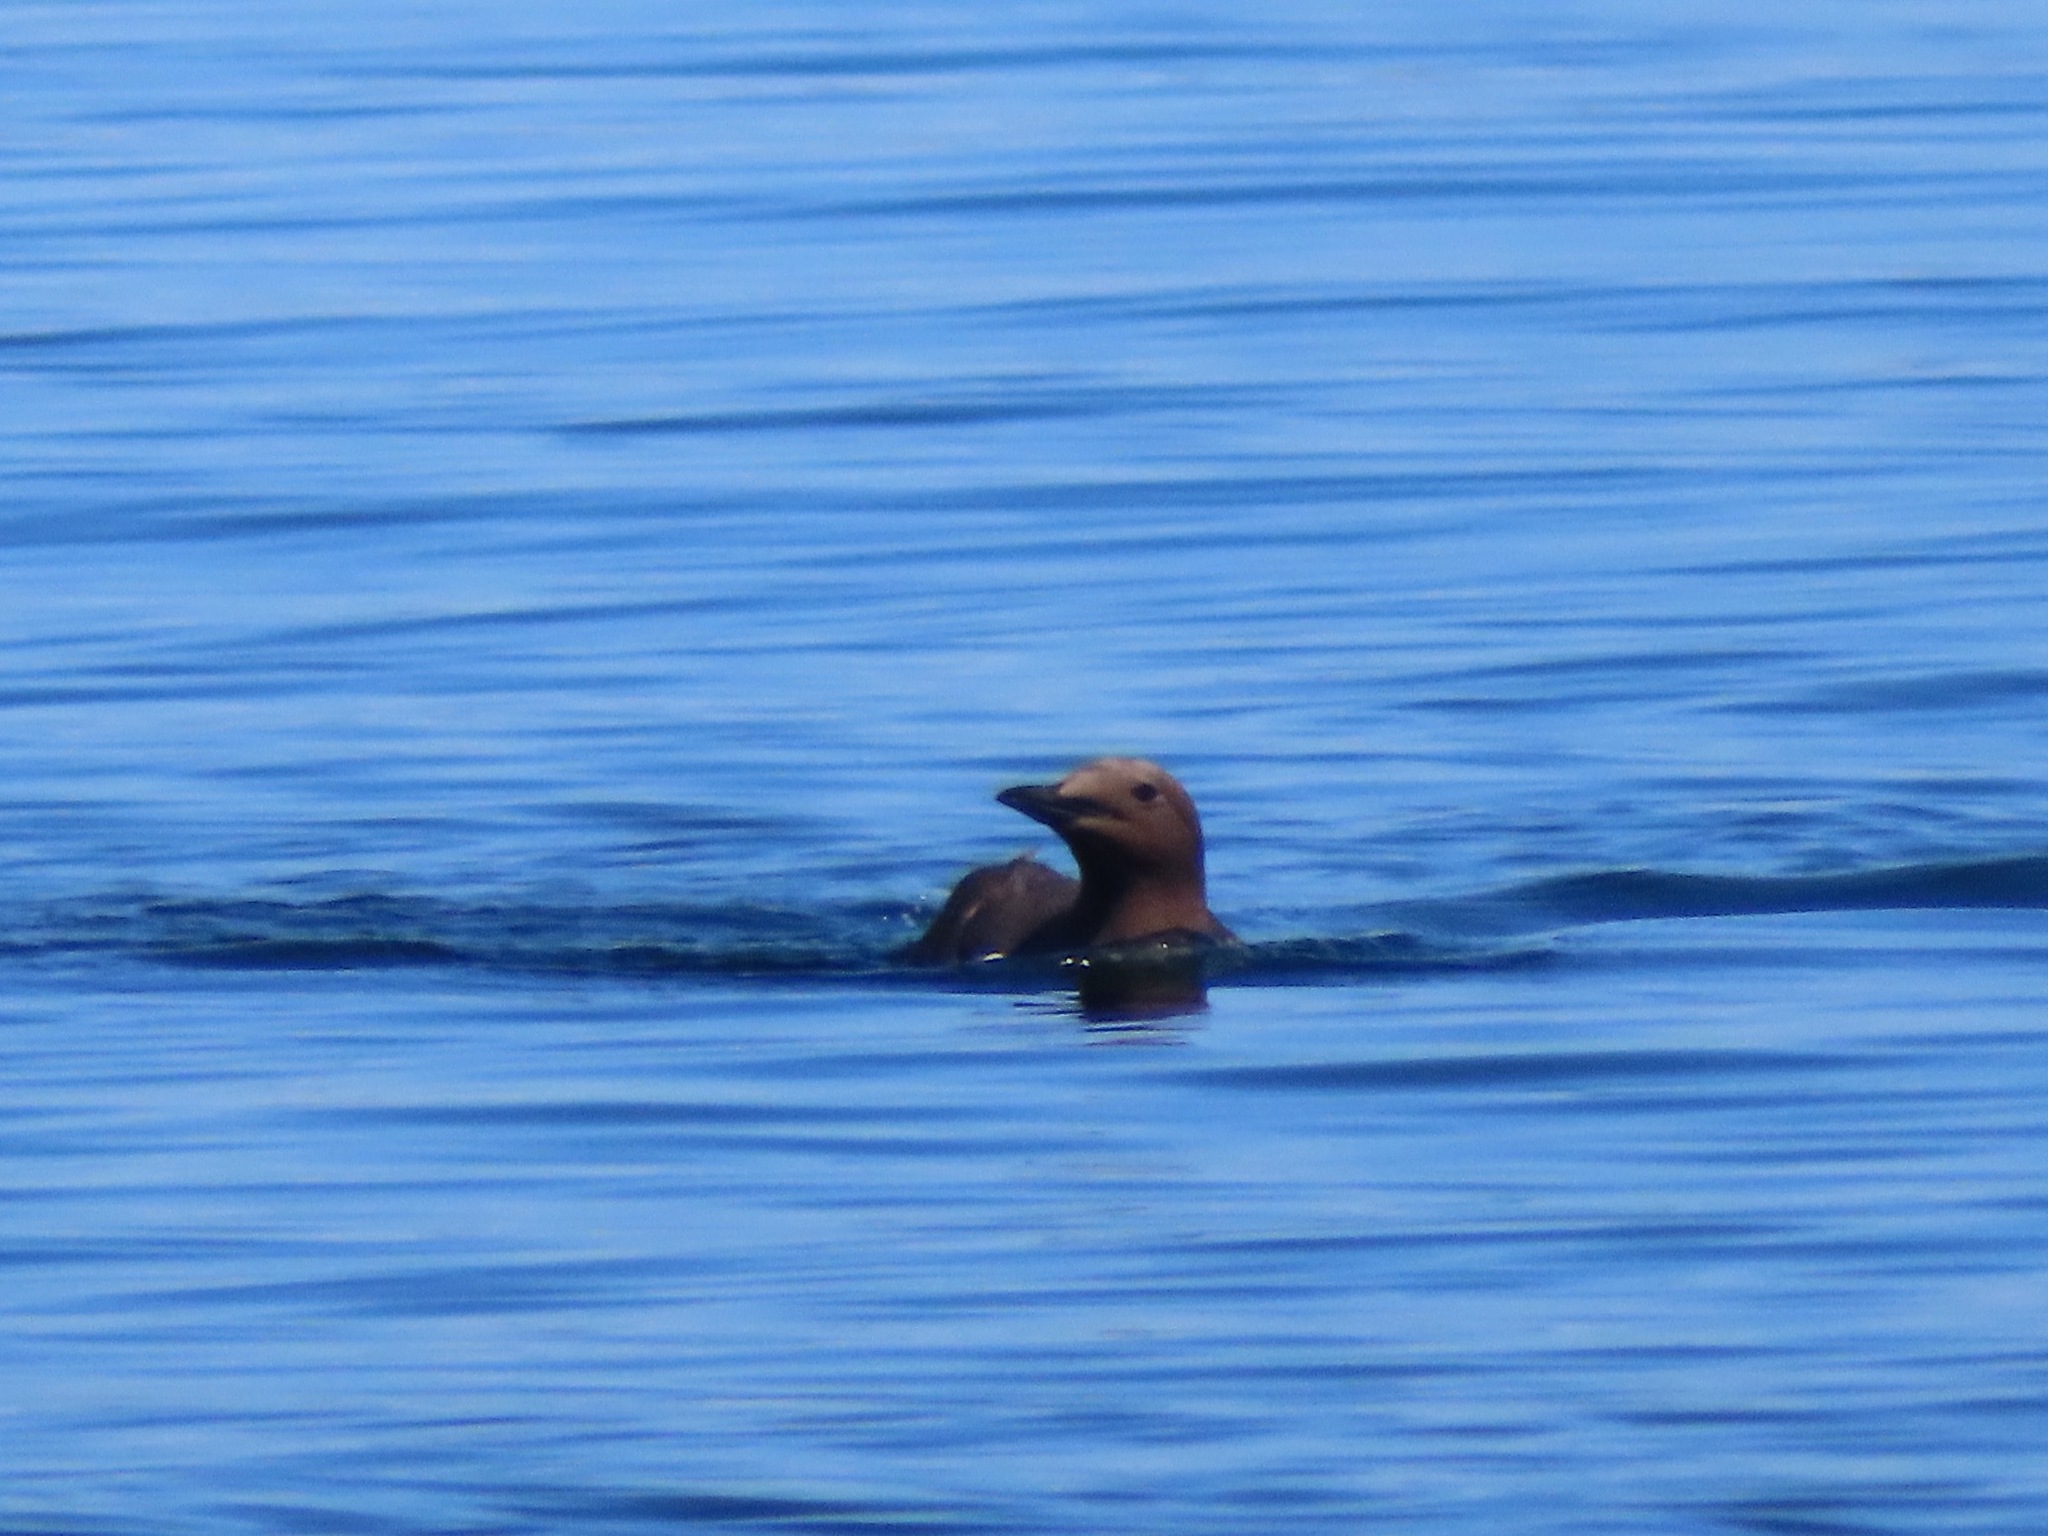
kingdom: Animalia
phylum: Chordata
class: Aves
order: Charadriiformes
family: Alcidae
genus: Uria
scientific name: Uria aalge
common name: Common murre
